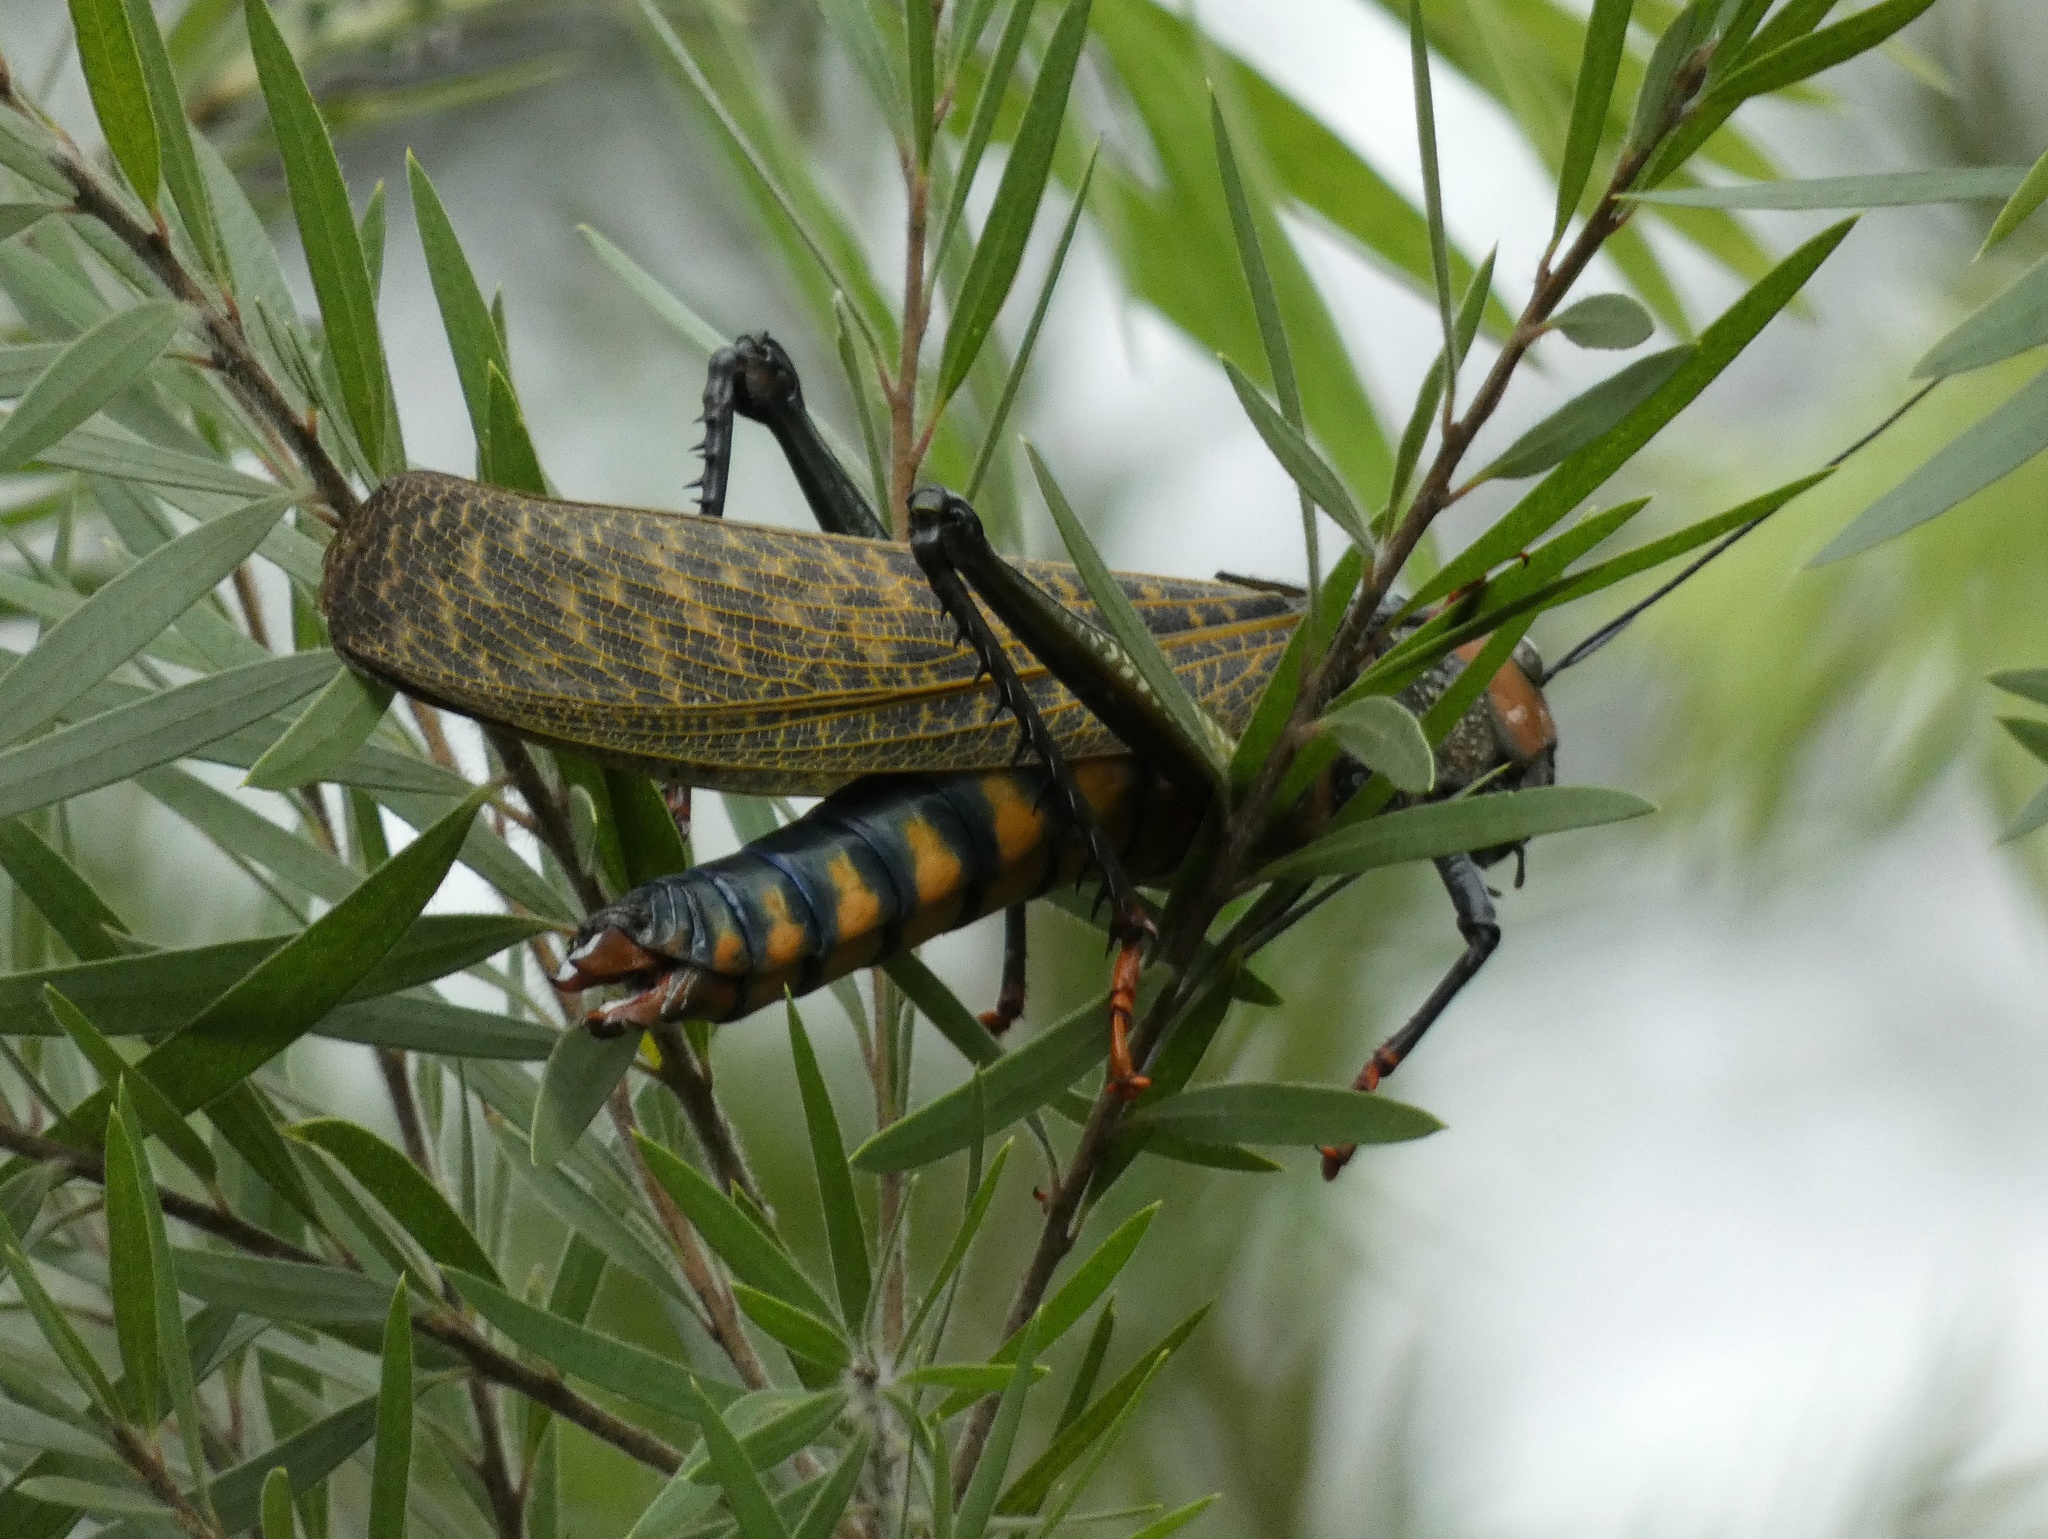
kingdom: Animalia
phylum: Arthropoda
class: Insecta
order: Orthoptera
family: Romaleidae
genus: Tropidacris
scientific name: Tropidacris cristata
